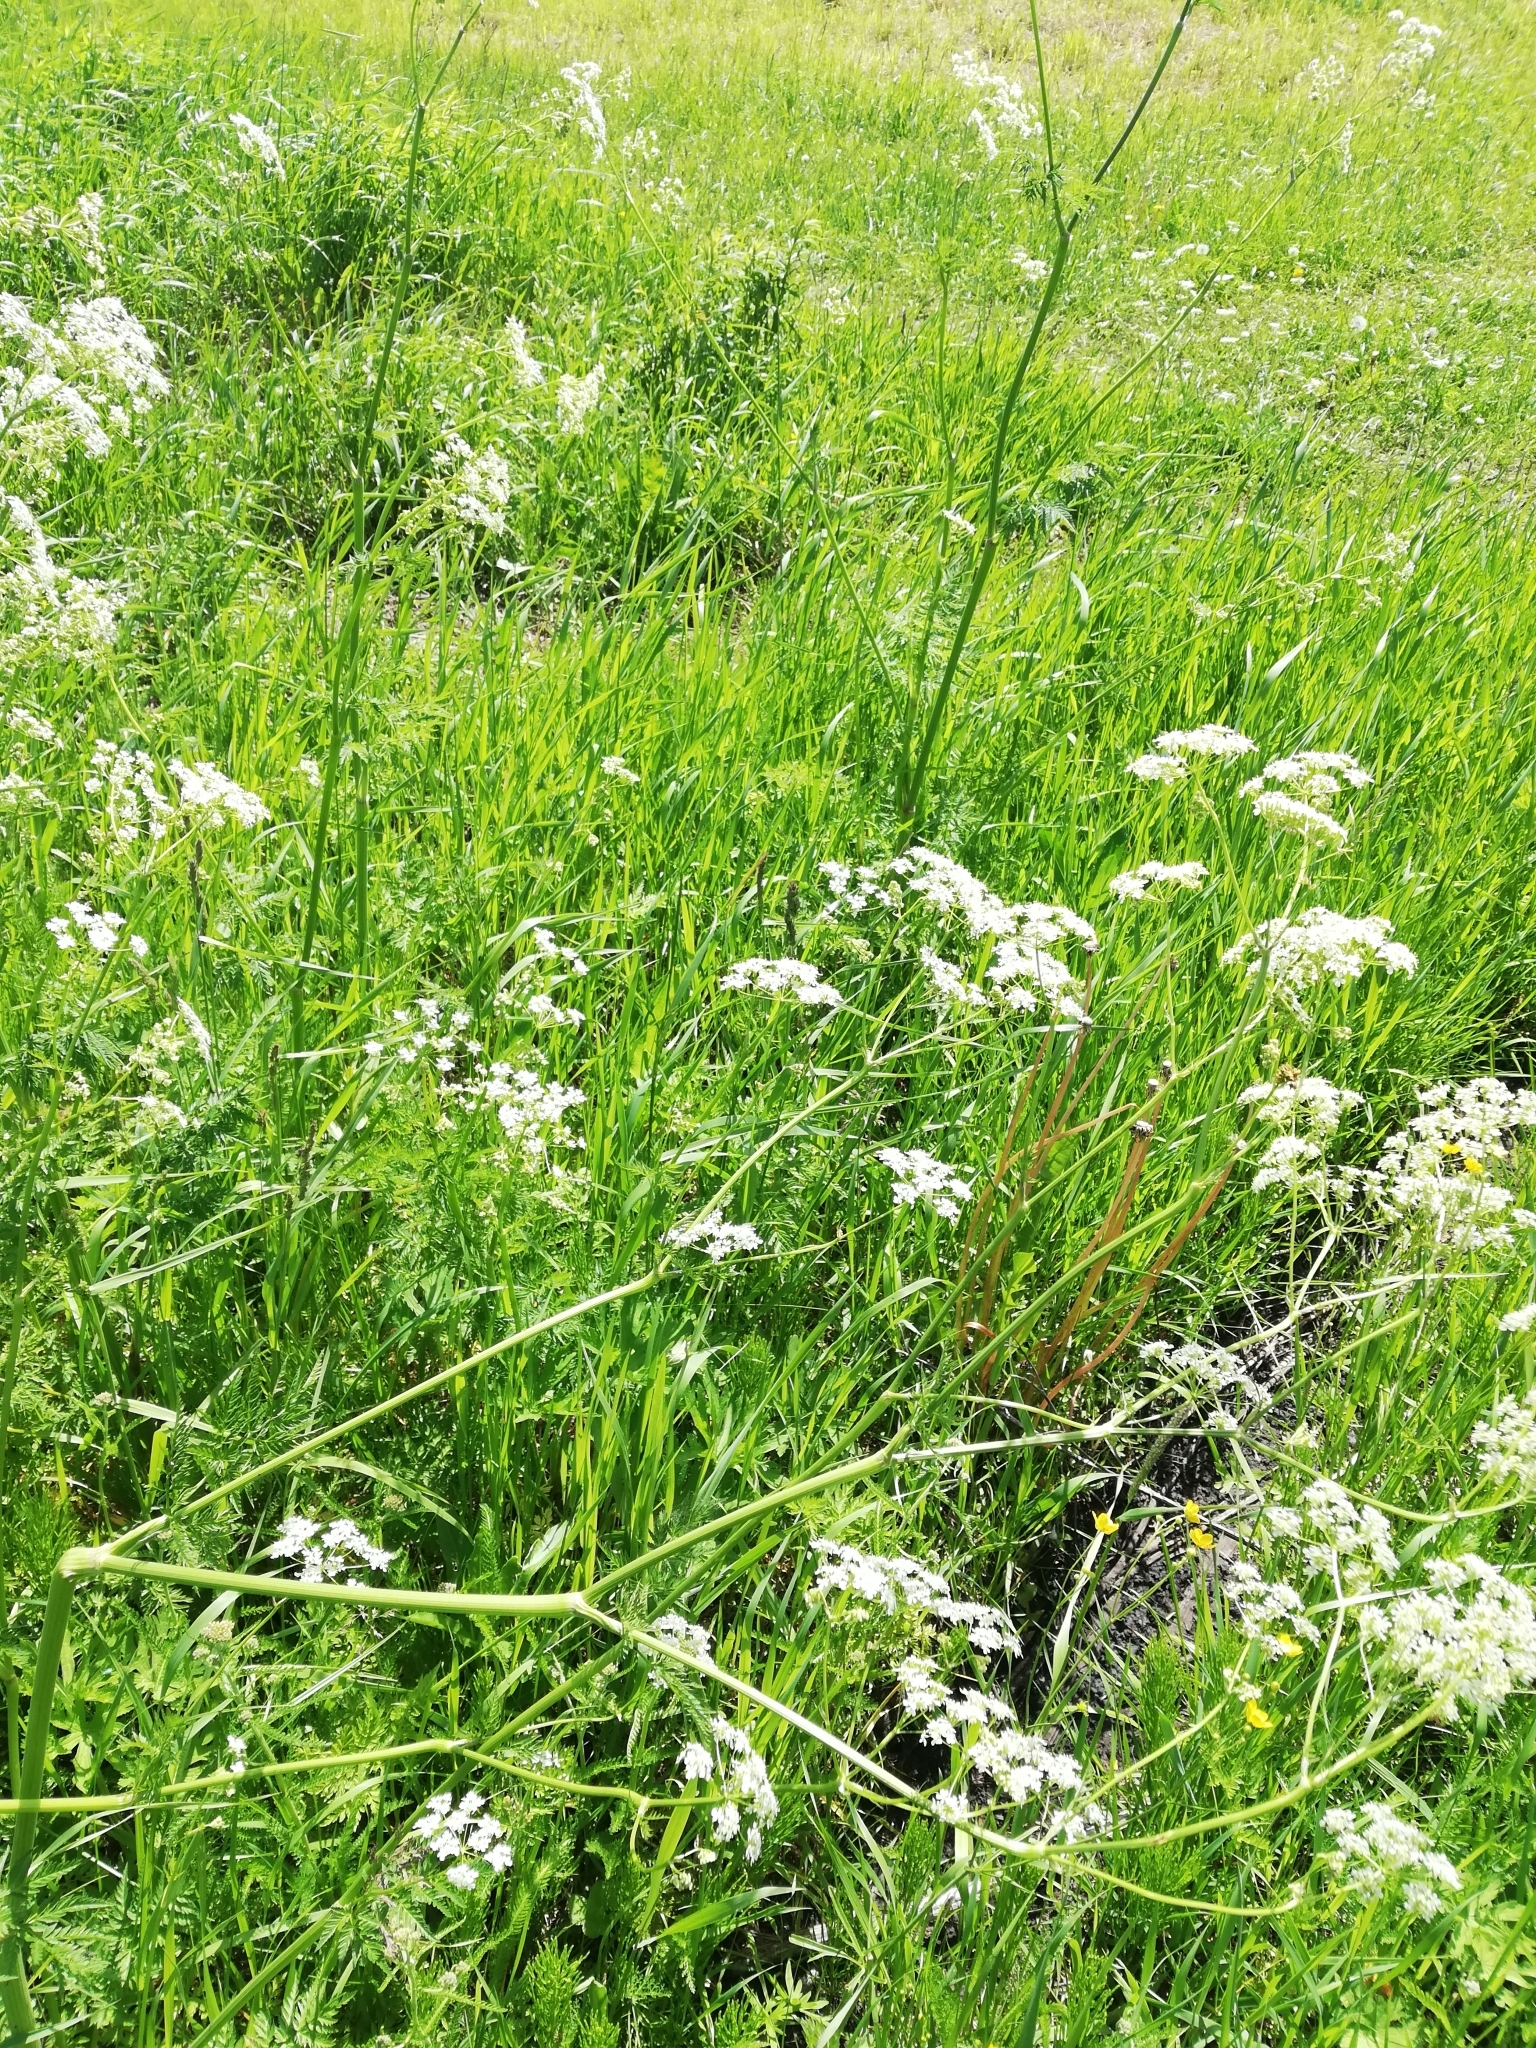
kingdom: Plantae
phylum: Tracheophyta
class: Magnoliopsida
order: Apiales
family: Apiaceae
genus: Anthriscus
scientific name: Anthriscus sylvestris
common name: Cow parsley
